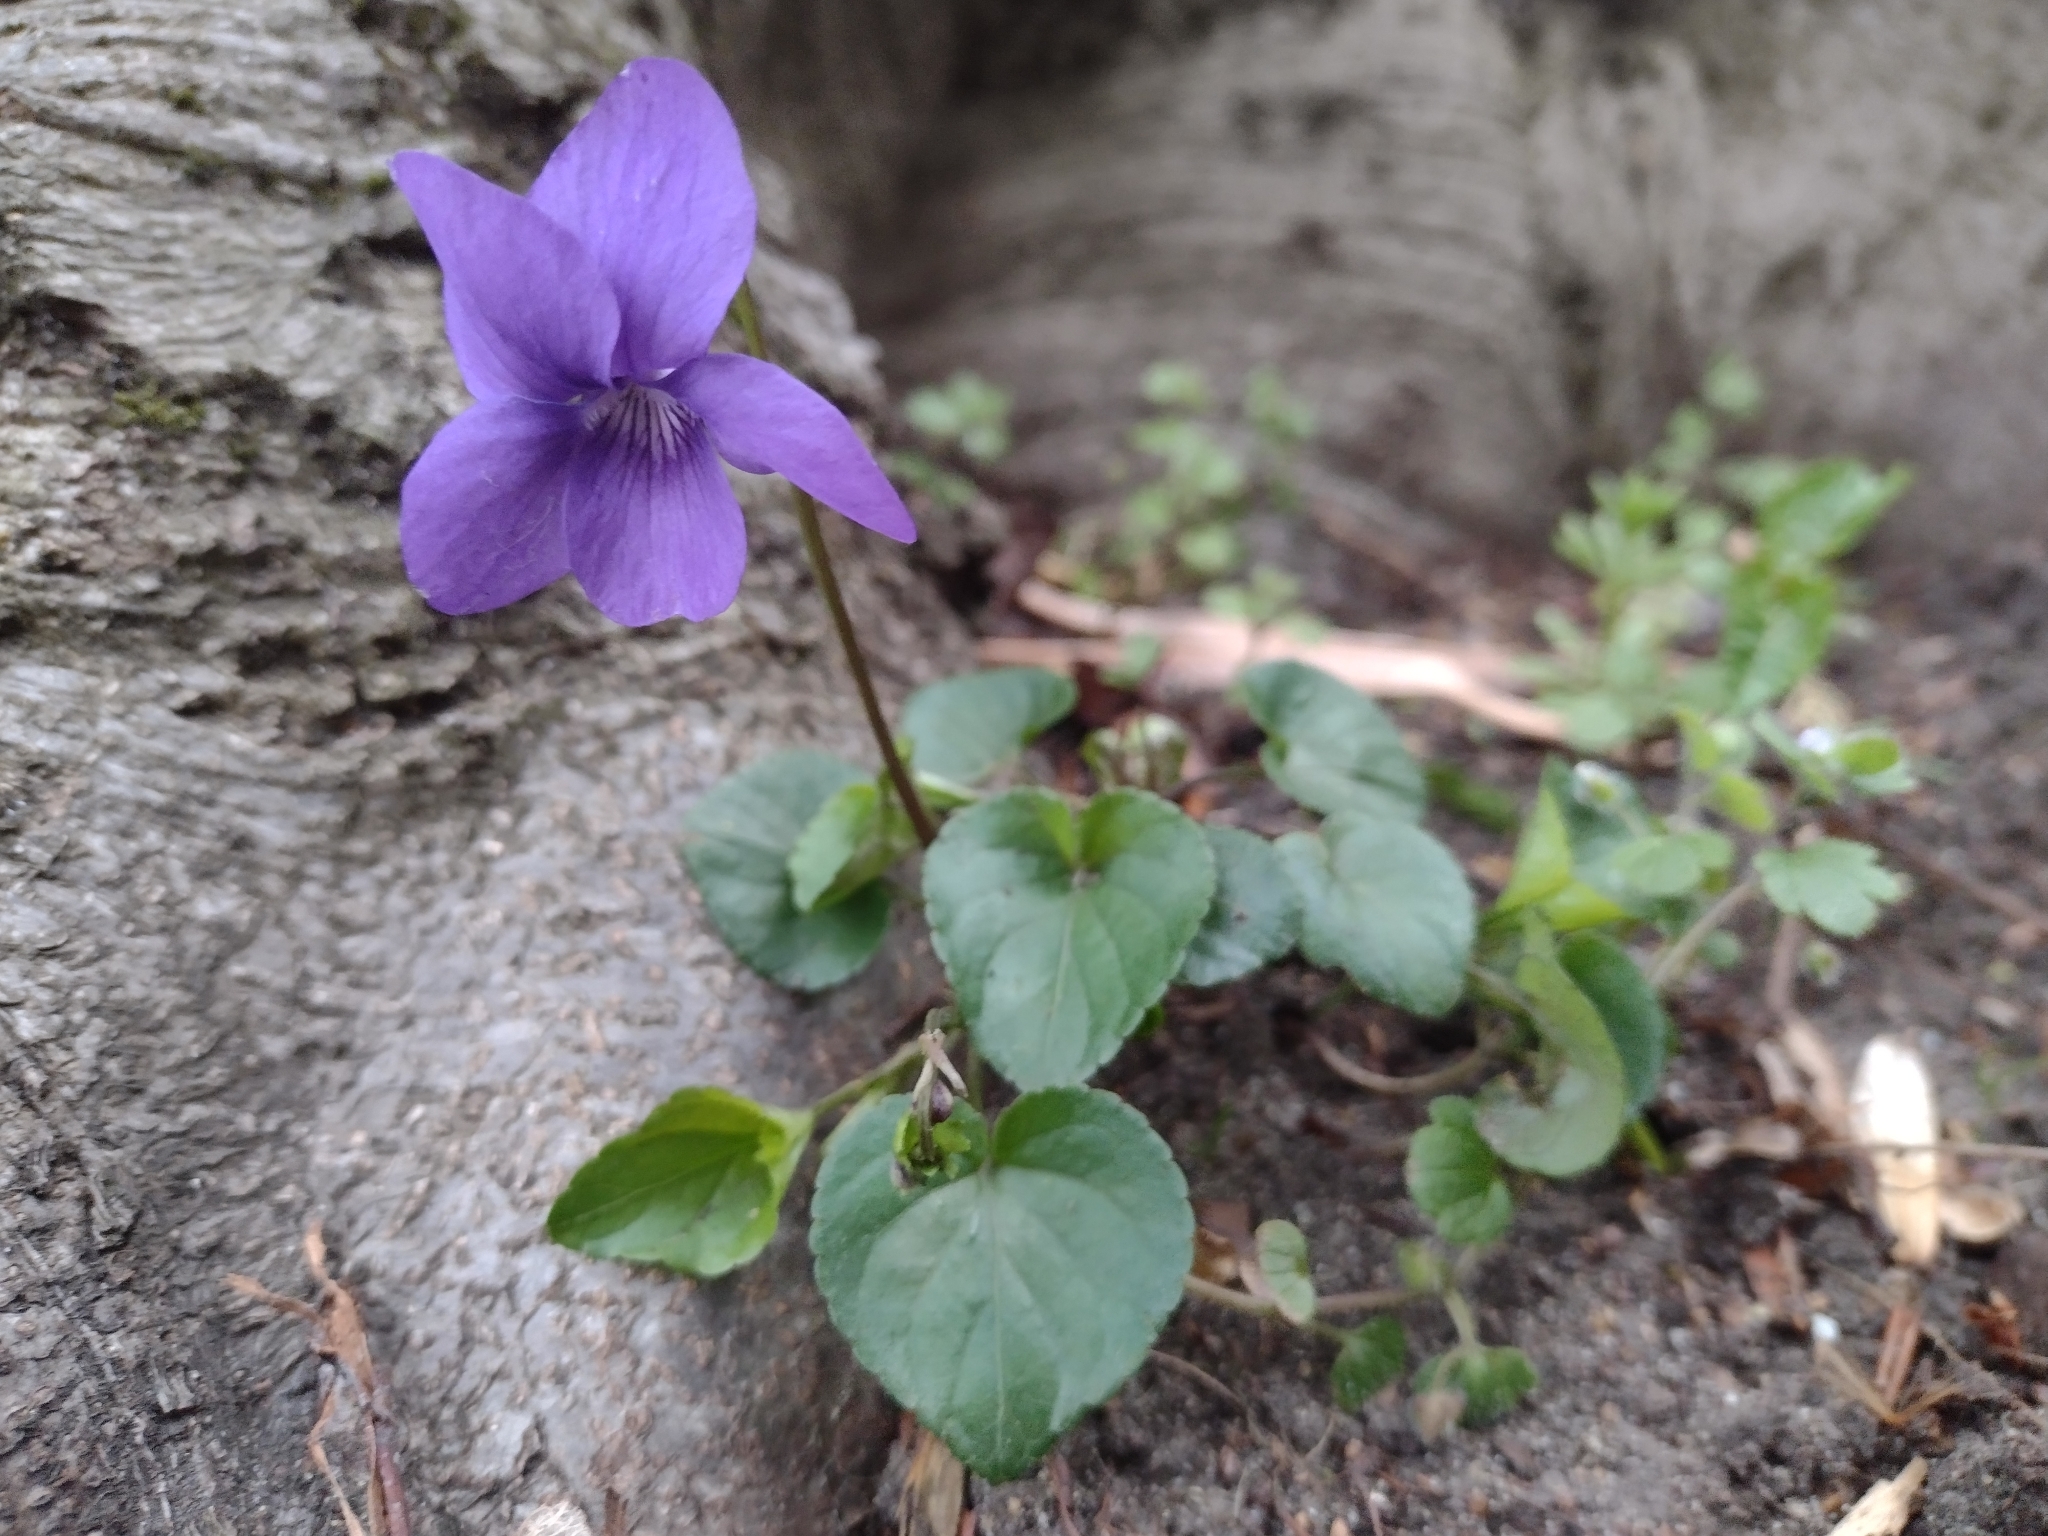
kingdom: Plantae
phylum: Tracheophyta
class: Magnoliopsida
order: Malpighiales
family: Violaceae
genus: Viola
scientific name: Viola riviniana
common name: Common dog-violet
